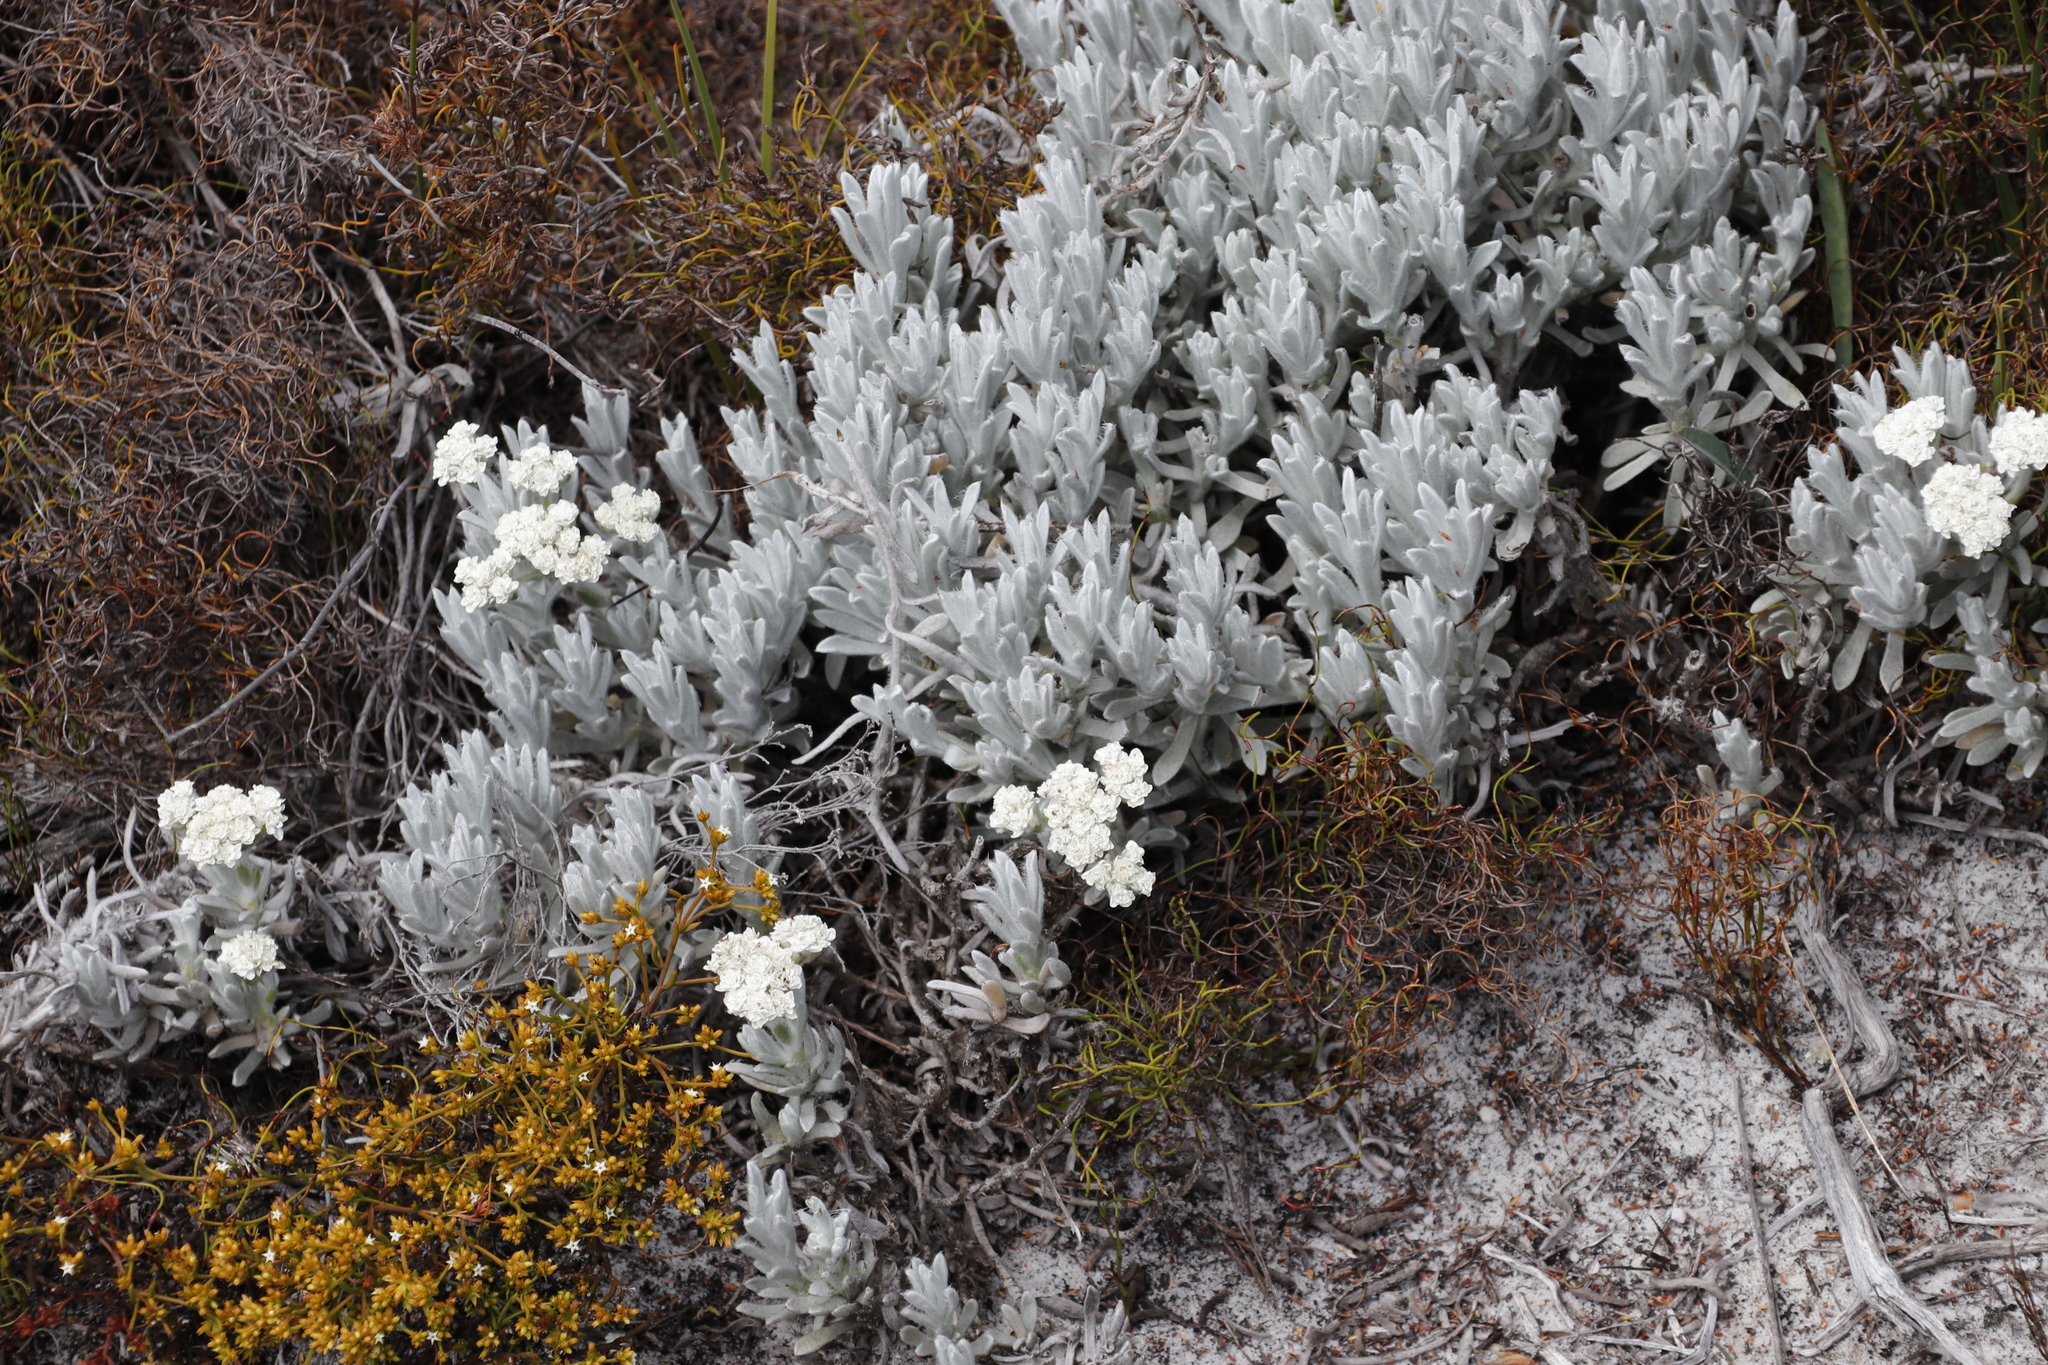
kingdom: Plantae
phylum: Tracheophyta
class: Magnoliopsida
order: Asterales
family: Asteraceae
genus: Petalacte
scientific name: Petalacte coronata
